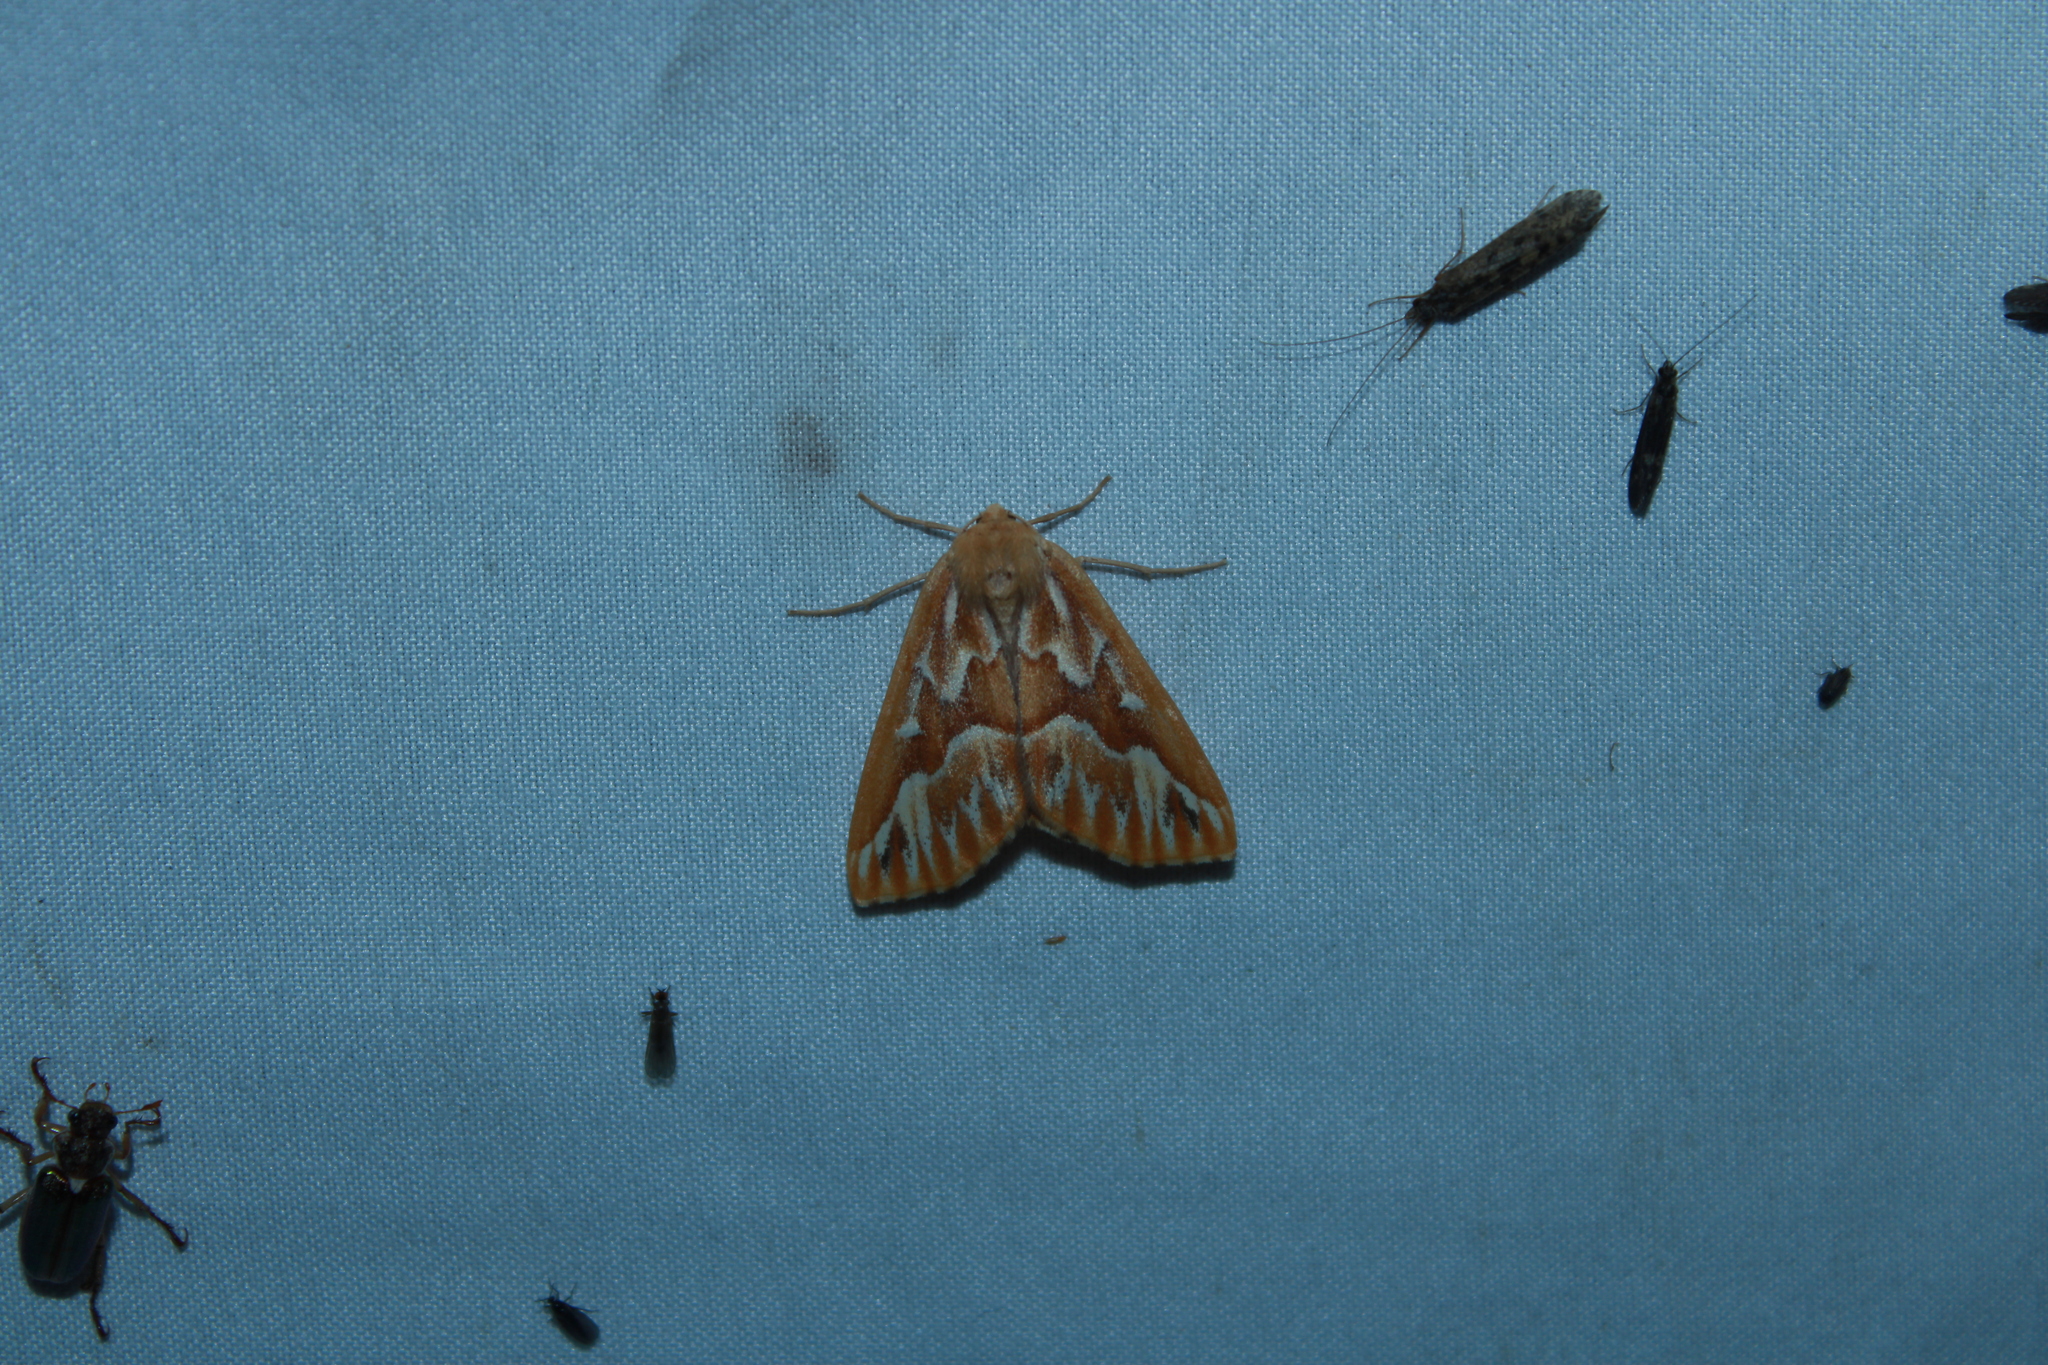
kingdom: Animalia
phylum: Arthropoda
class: Insecta
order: Lepidoptera
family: Geometridae
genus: Caripeta
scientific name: Caripeta piniata
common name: Northern pine looper moth
